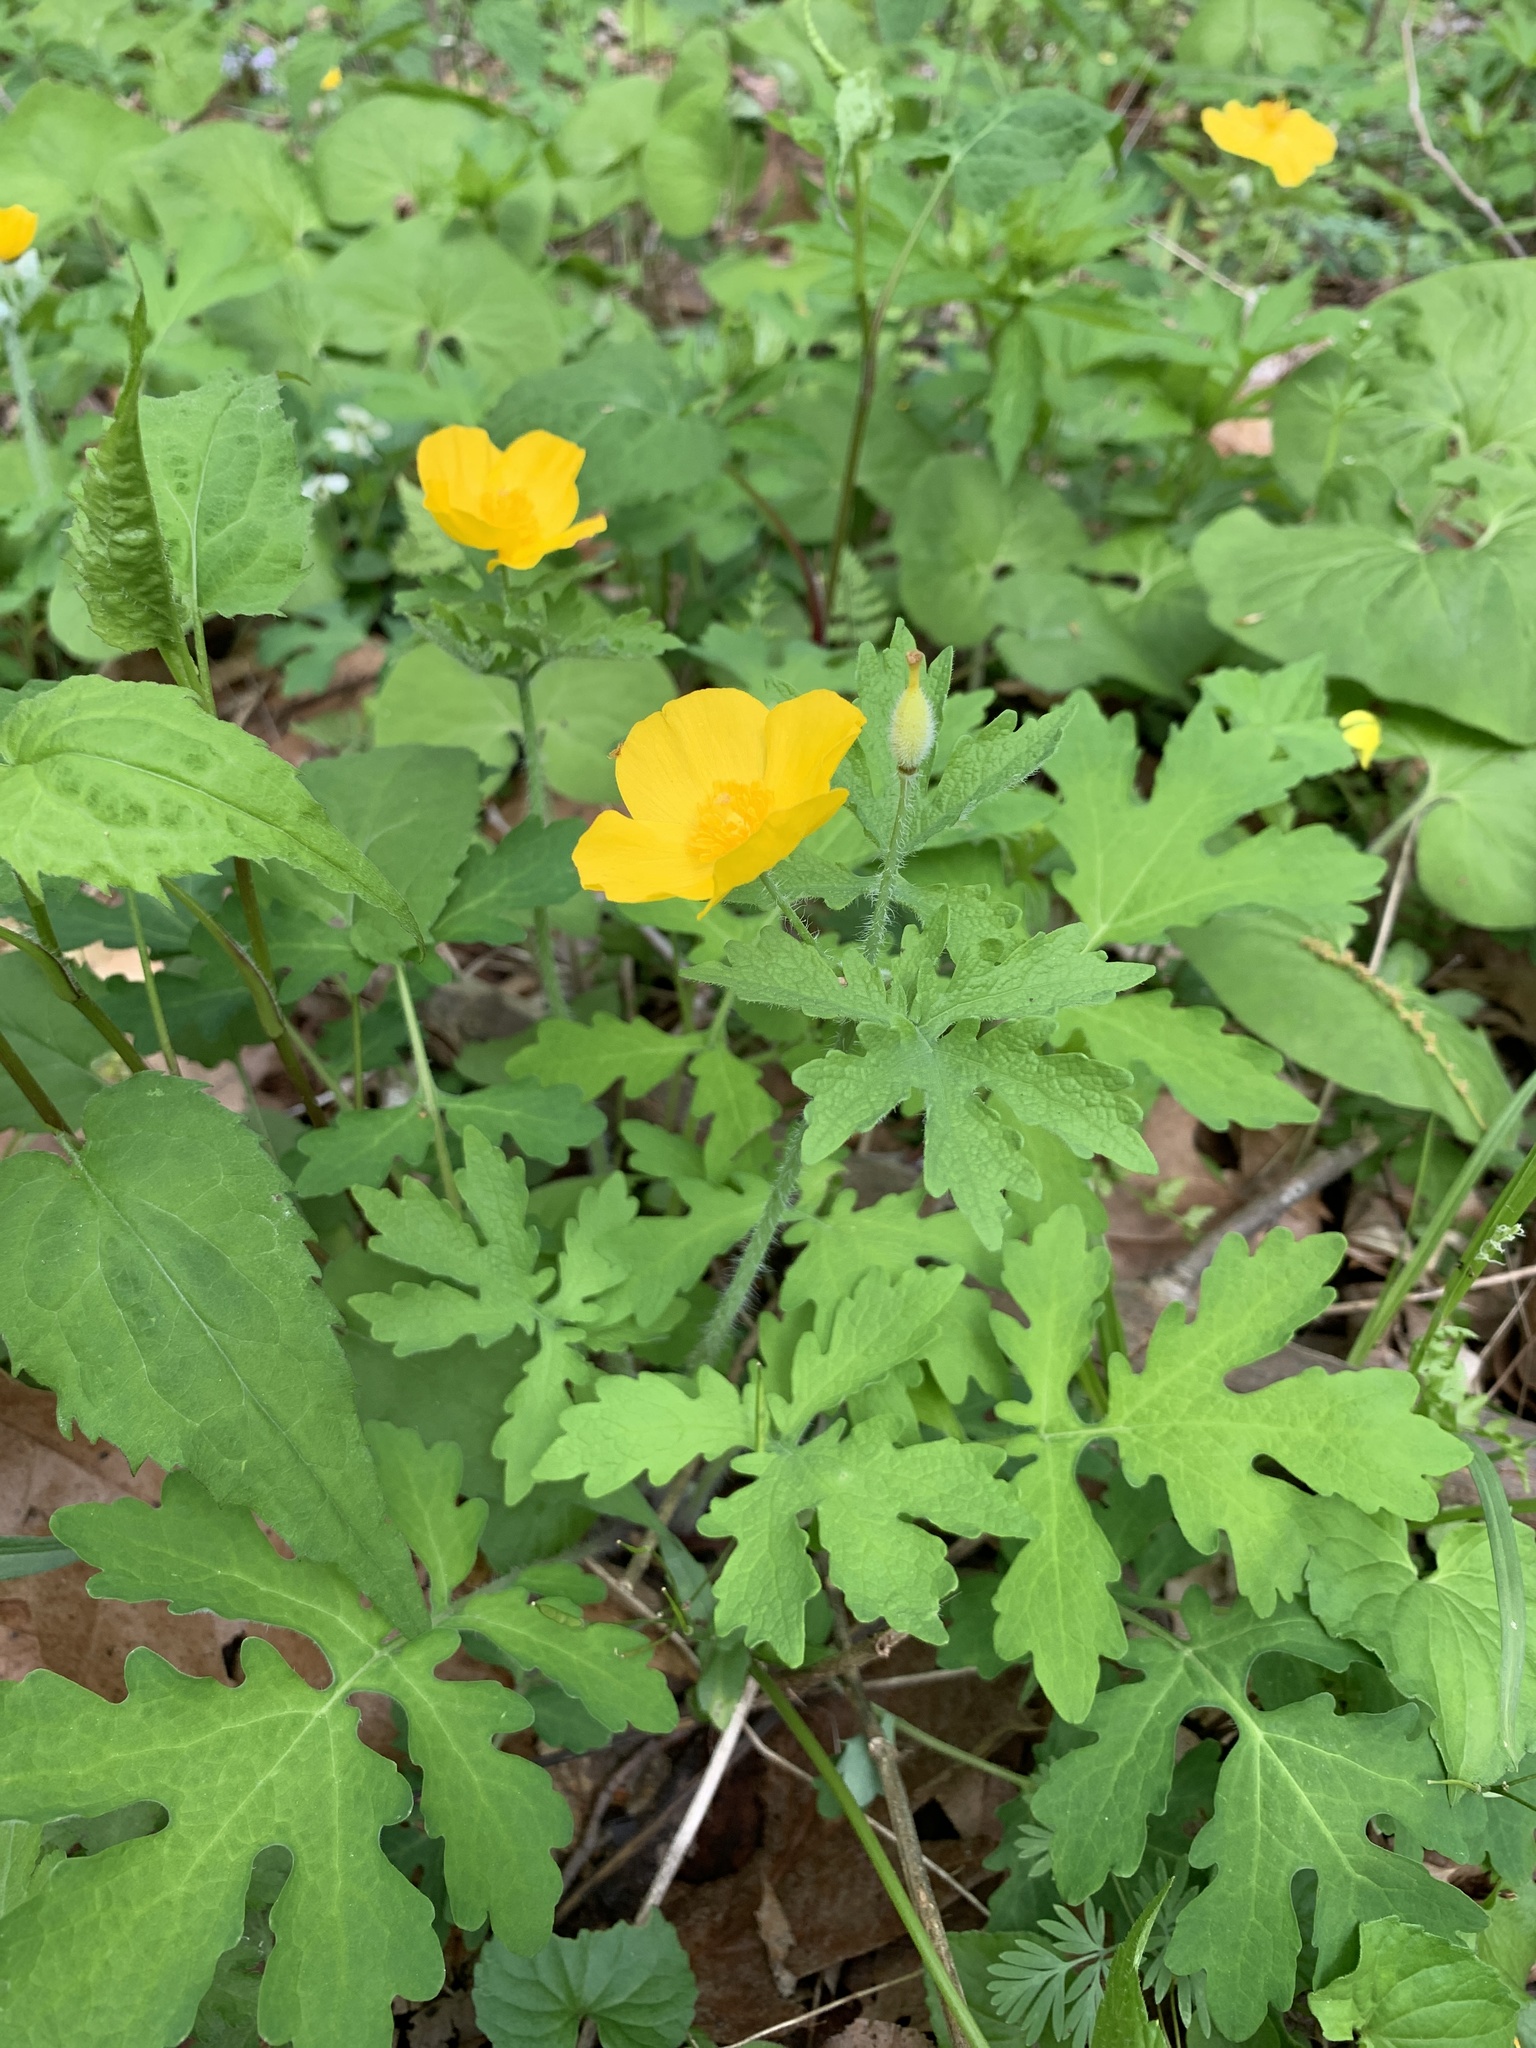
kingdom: Plantae
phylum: Tracheophyta
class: Magnoliopsida
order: Ranunculales
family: Papaveraceae
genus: Stylophorum
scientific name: Stylophorum diphyllum
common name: Celandine poppy
